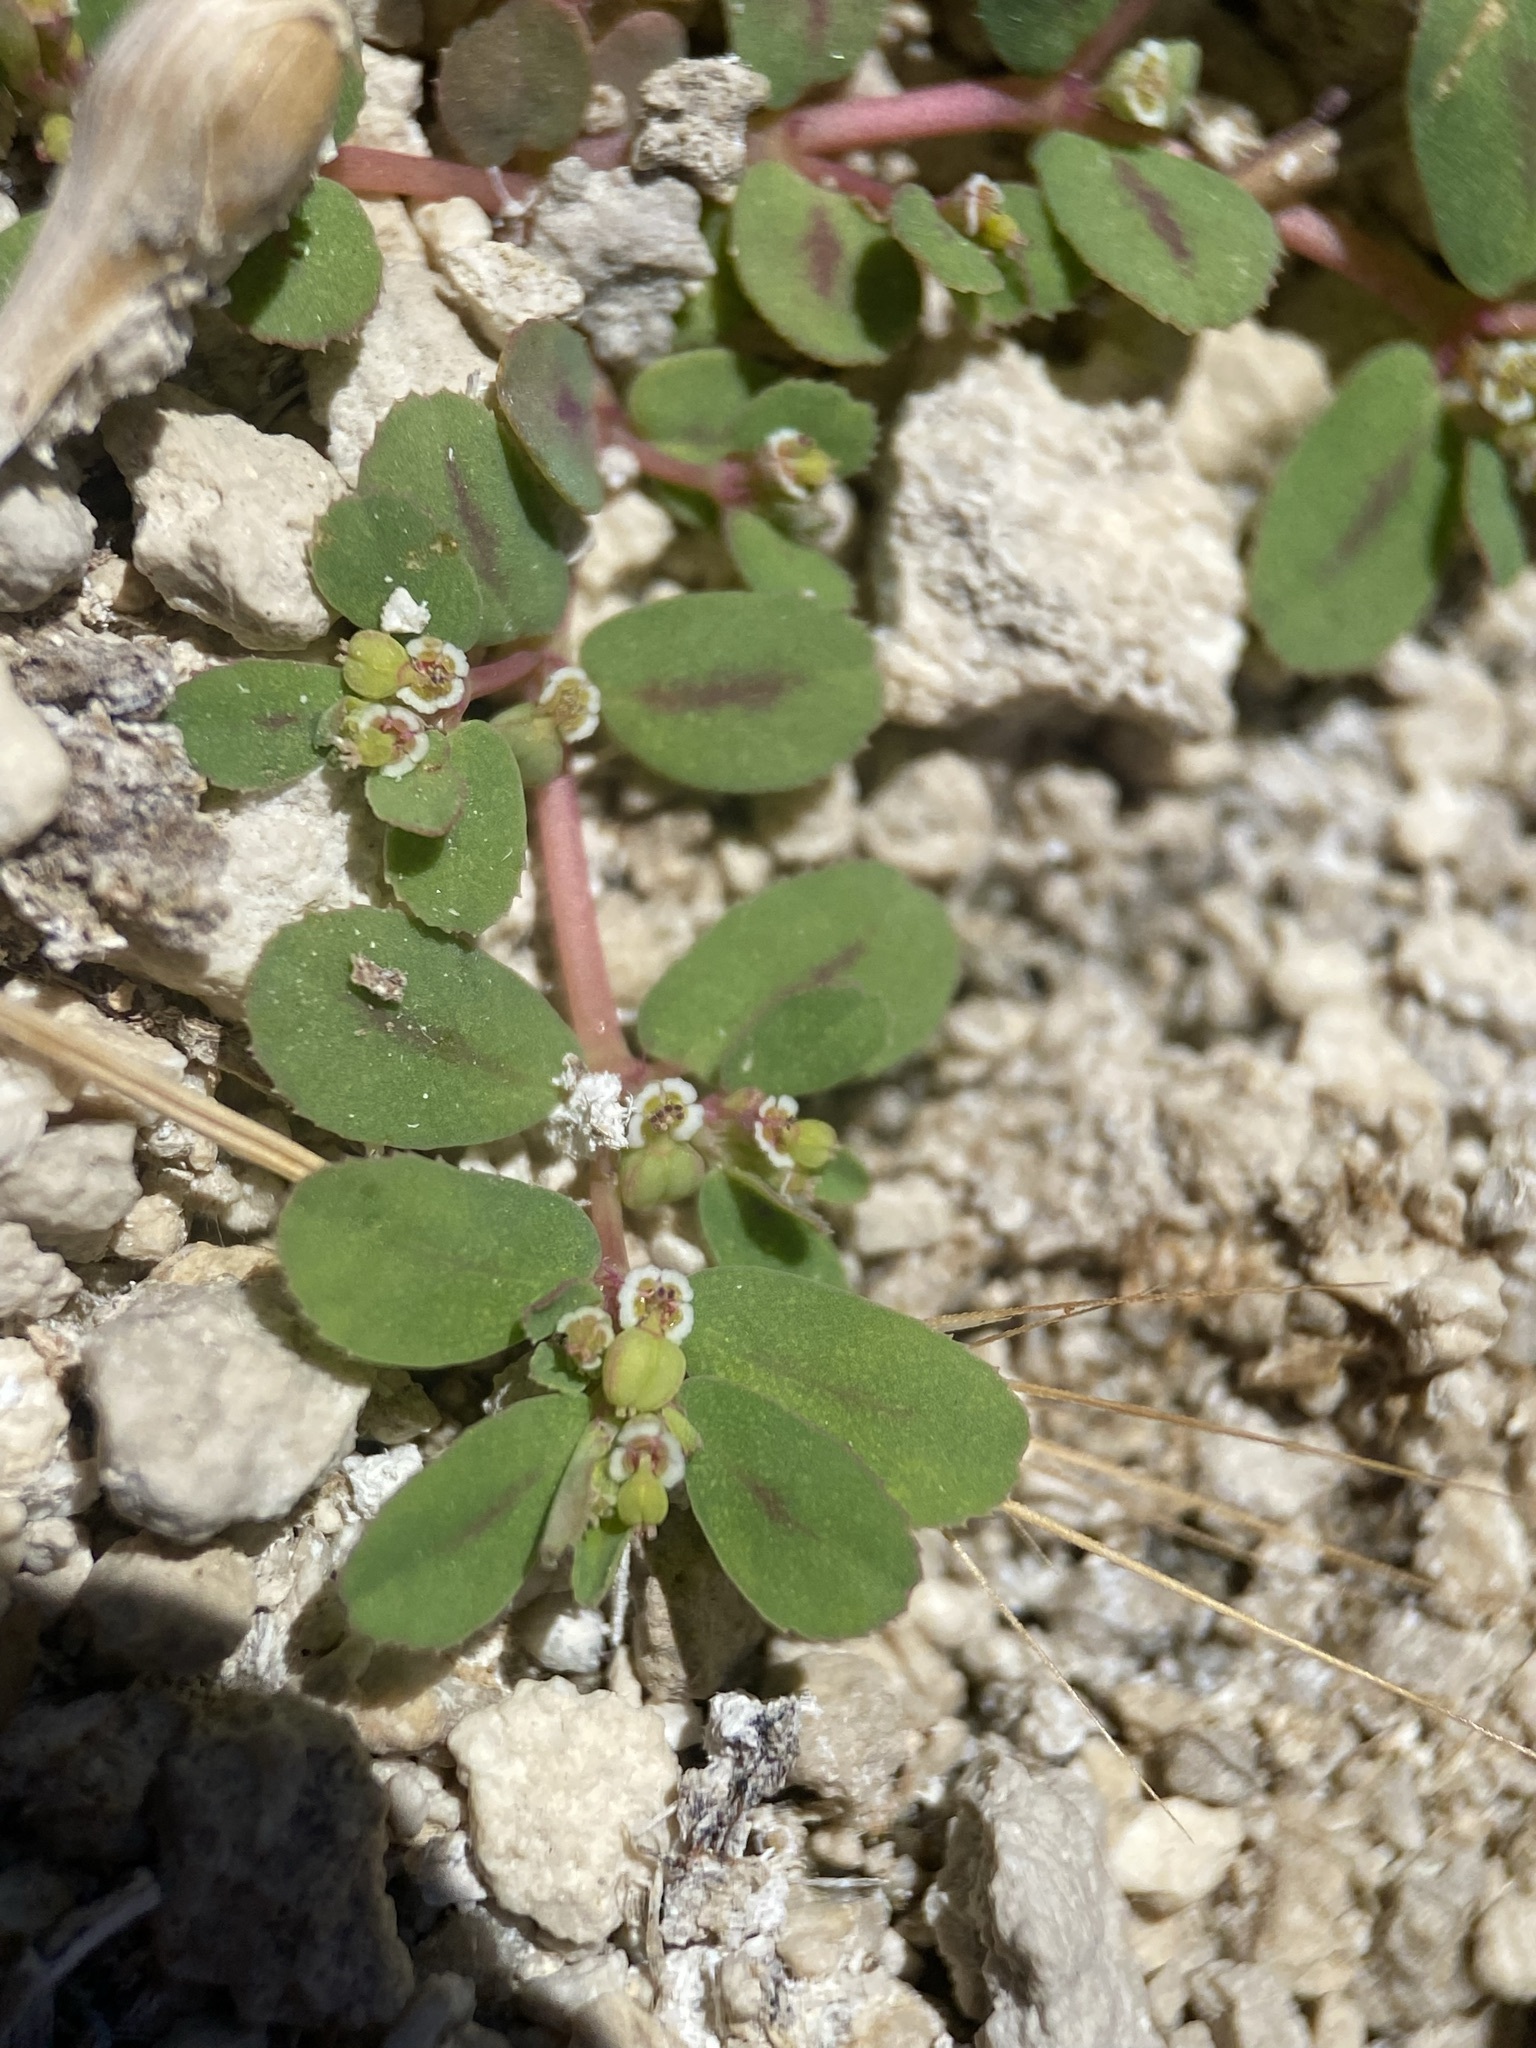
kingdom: Plantae
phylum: Tracheophyta
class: Magnoliopsida
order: Malpighiales
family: Euphorbiaceae
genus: Euphorbia
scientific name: Euphorbia serpillifolia
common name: Thyme-leaf spurge
